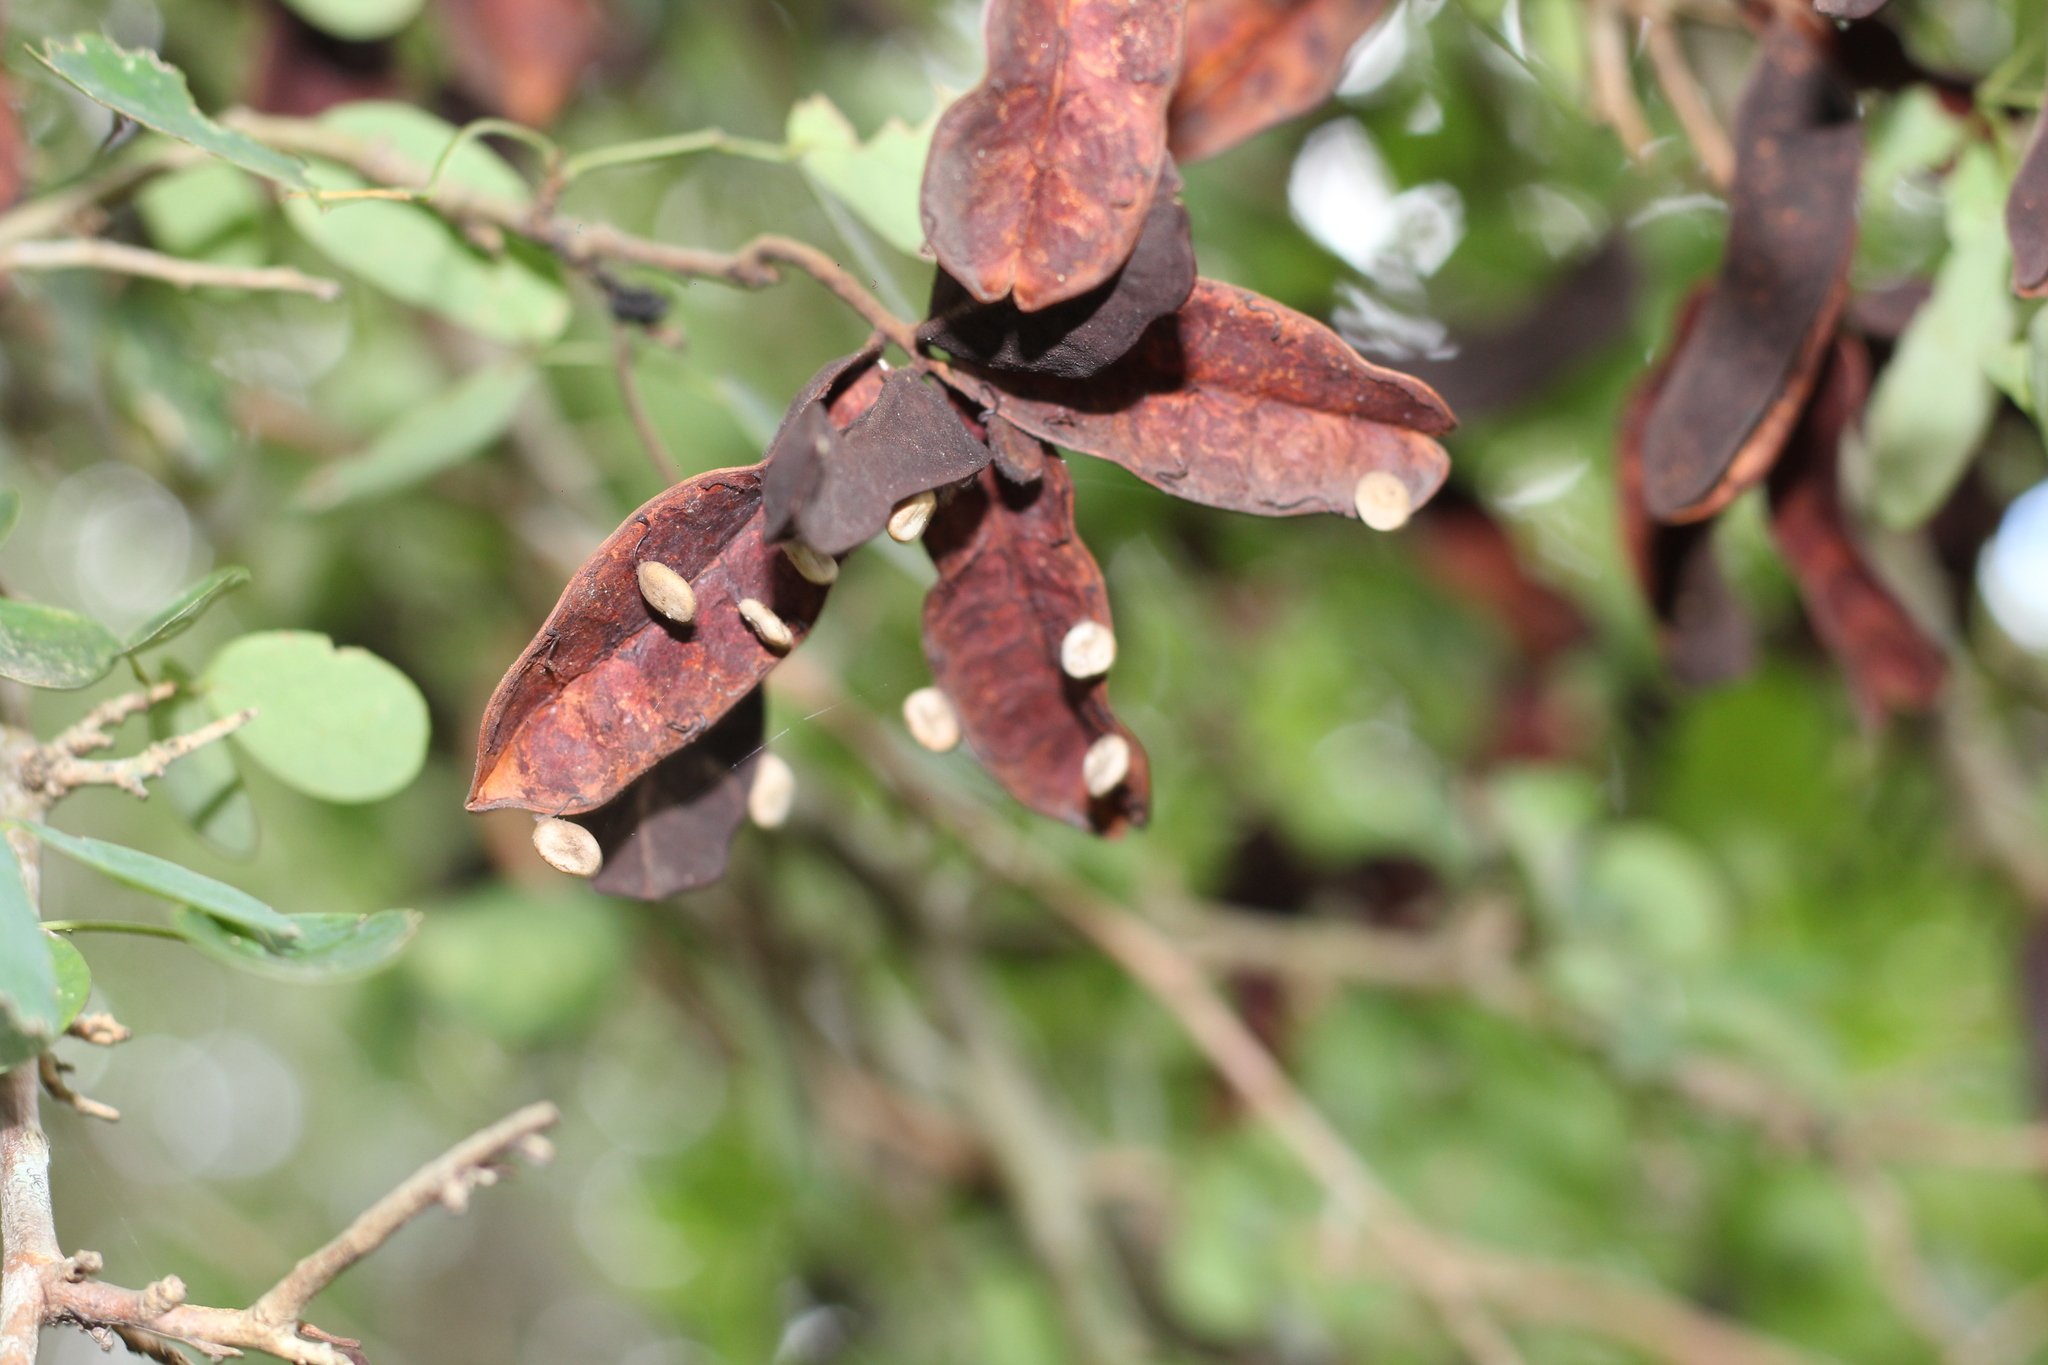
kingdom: Plantae
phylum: Tracheophyta
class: Magnoliopsida
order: Fabales
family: Fabaceae
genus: Microlobius
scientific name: Microlobius foetidus
